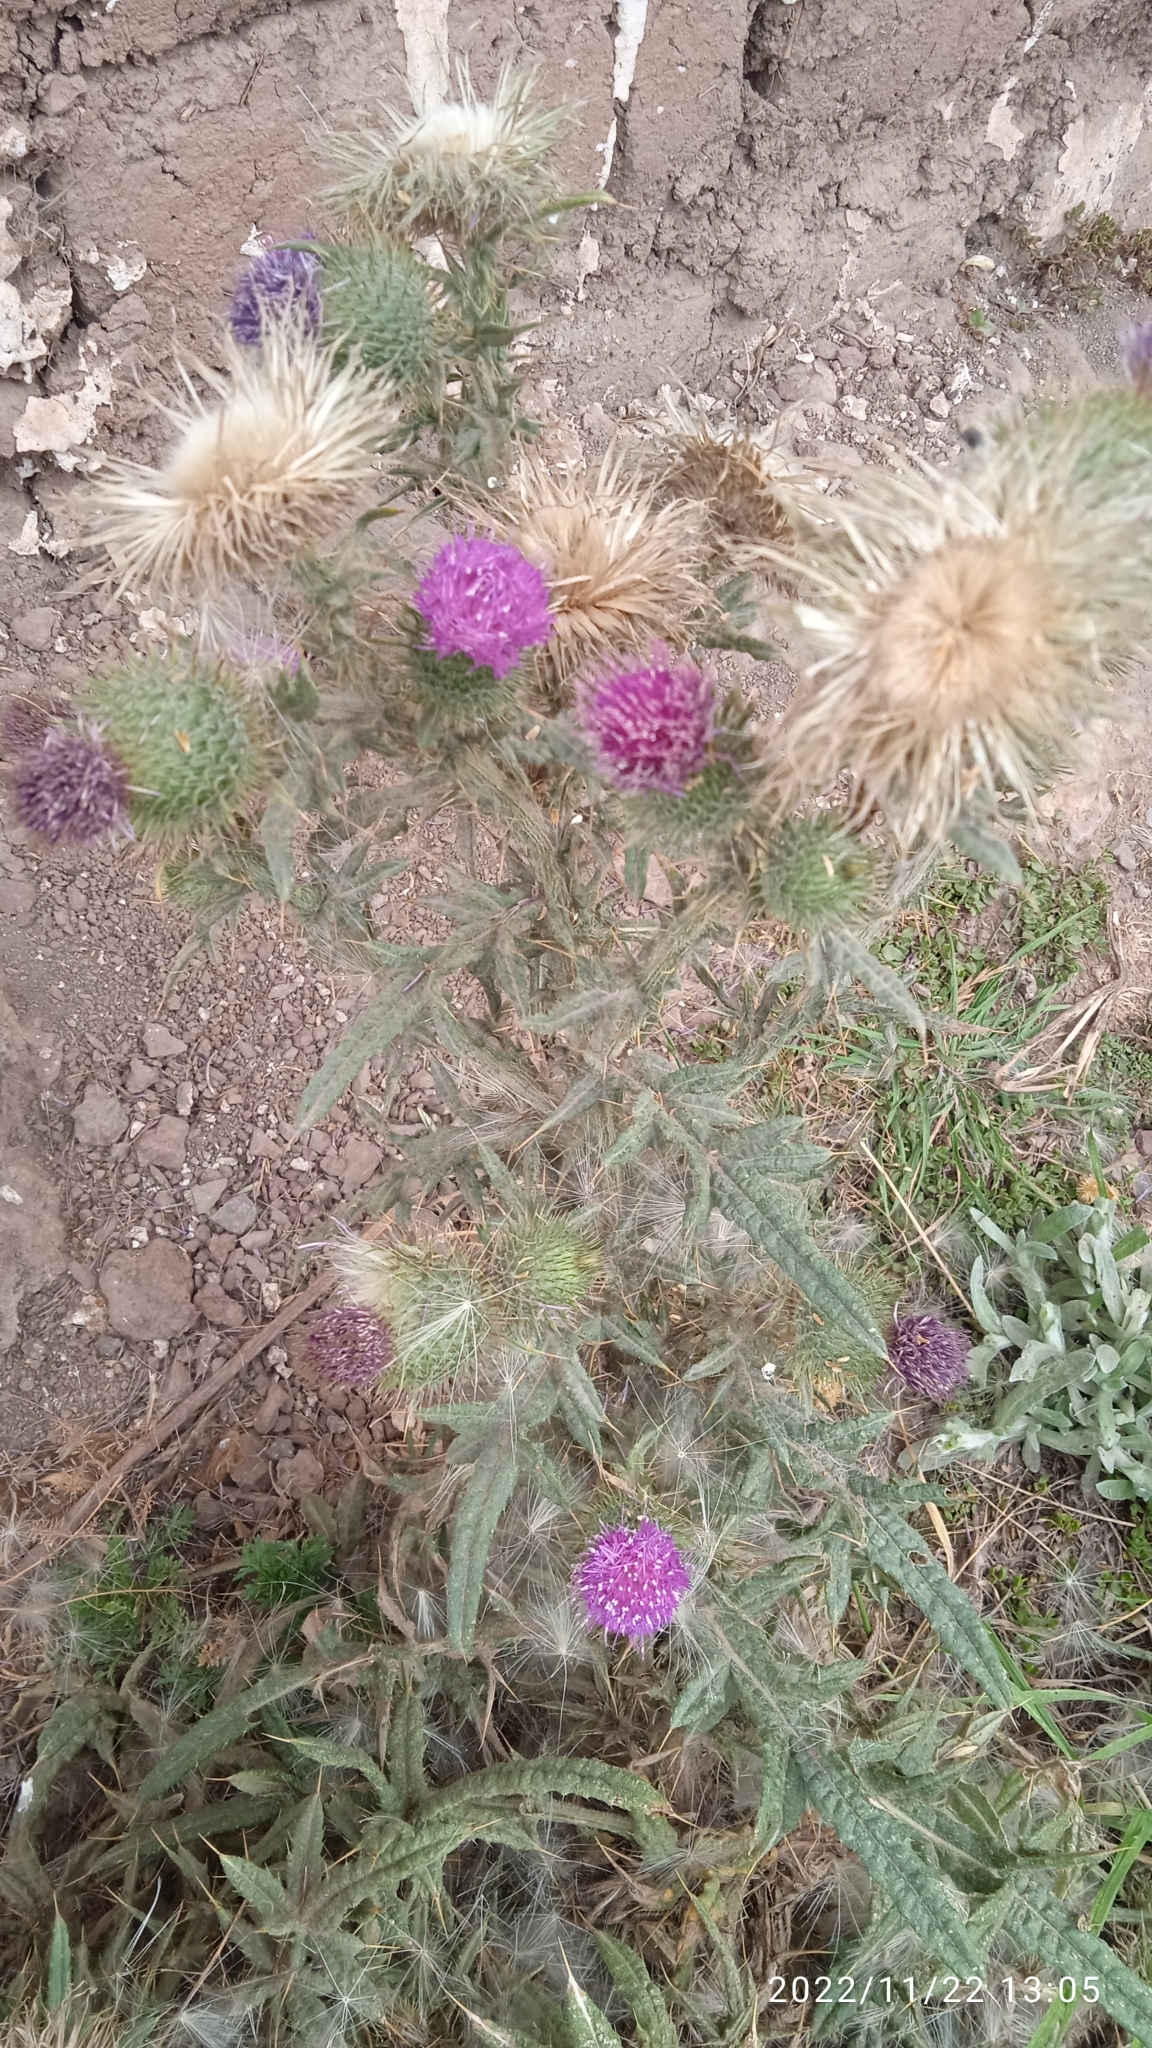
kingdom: Plantae
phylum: Tracheophyta
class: Magnoliopsida
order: Asterales
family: Asteraceae
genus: Cirsium
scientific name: Cirsium vulgare
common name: Bull thistle
